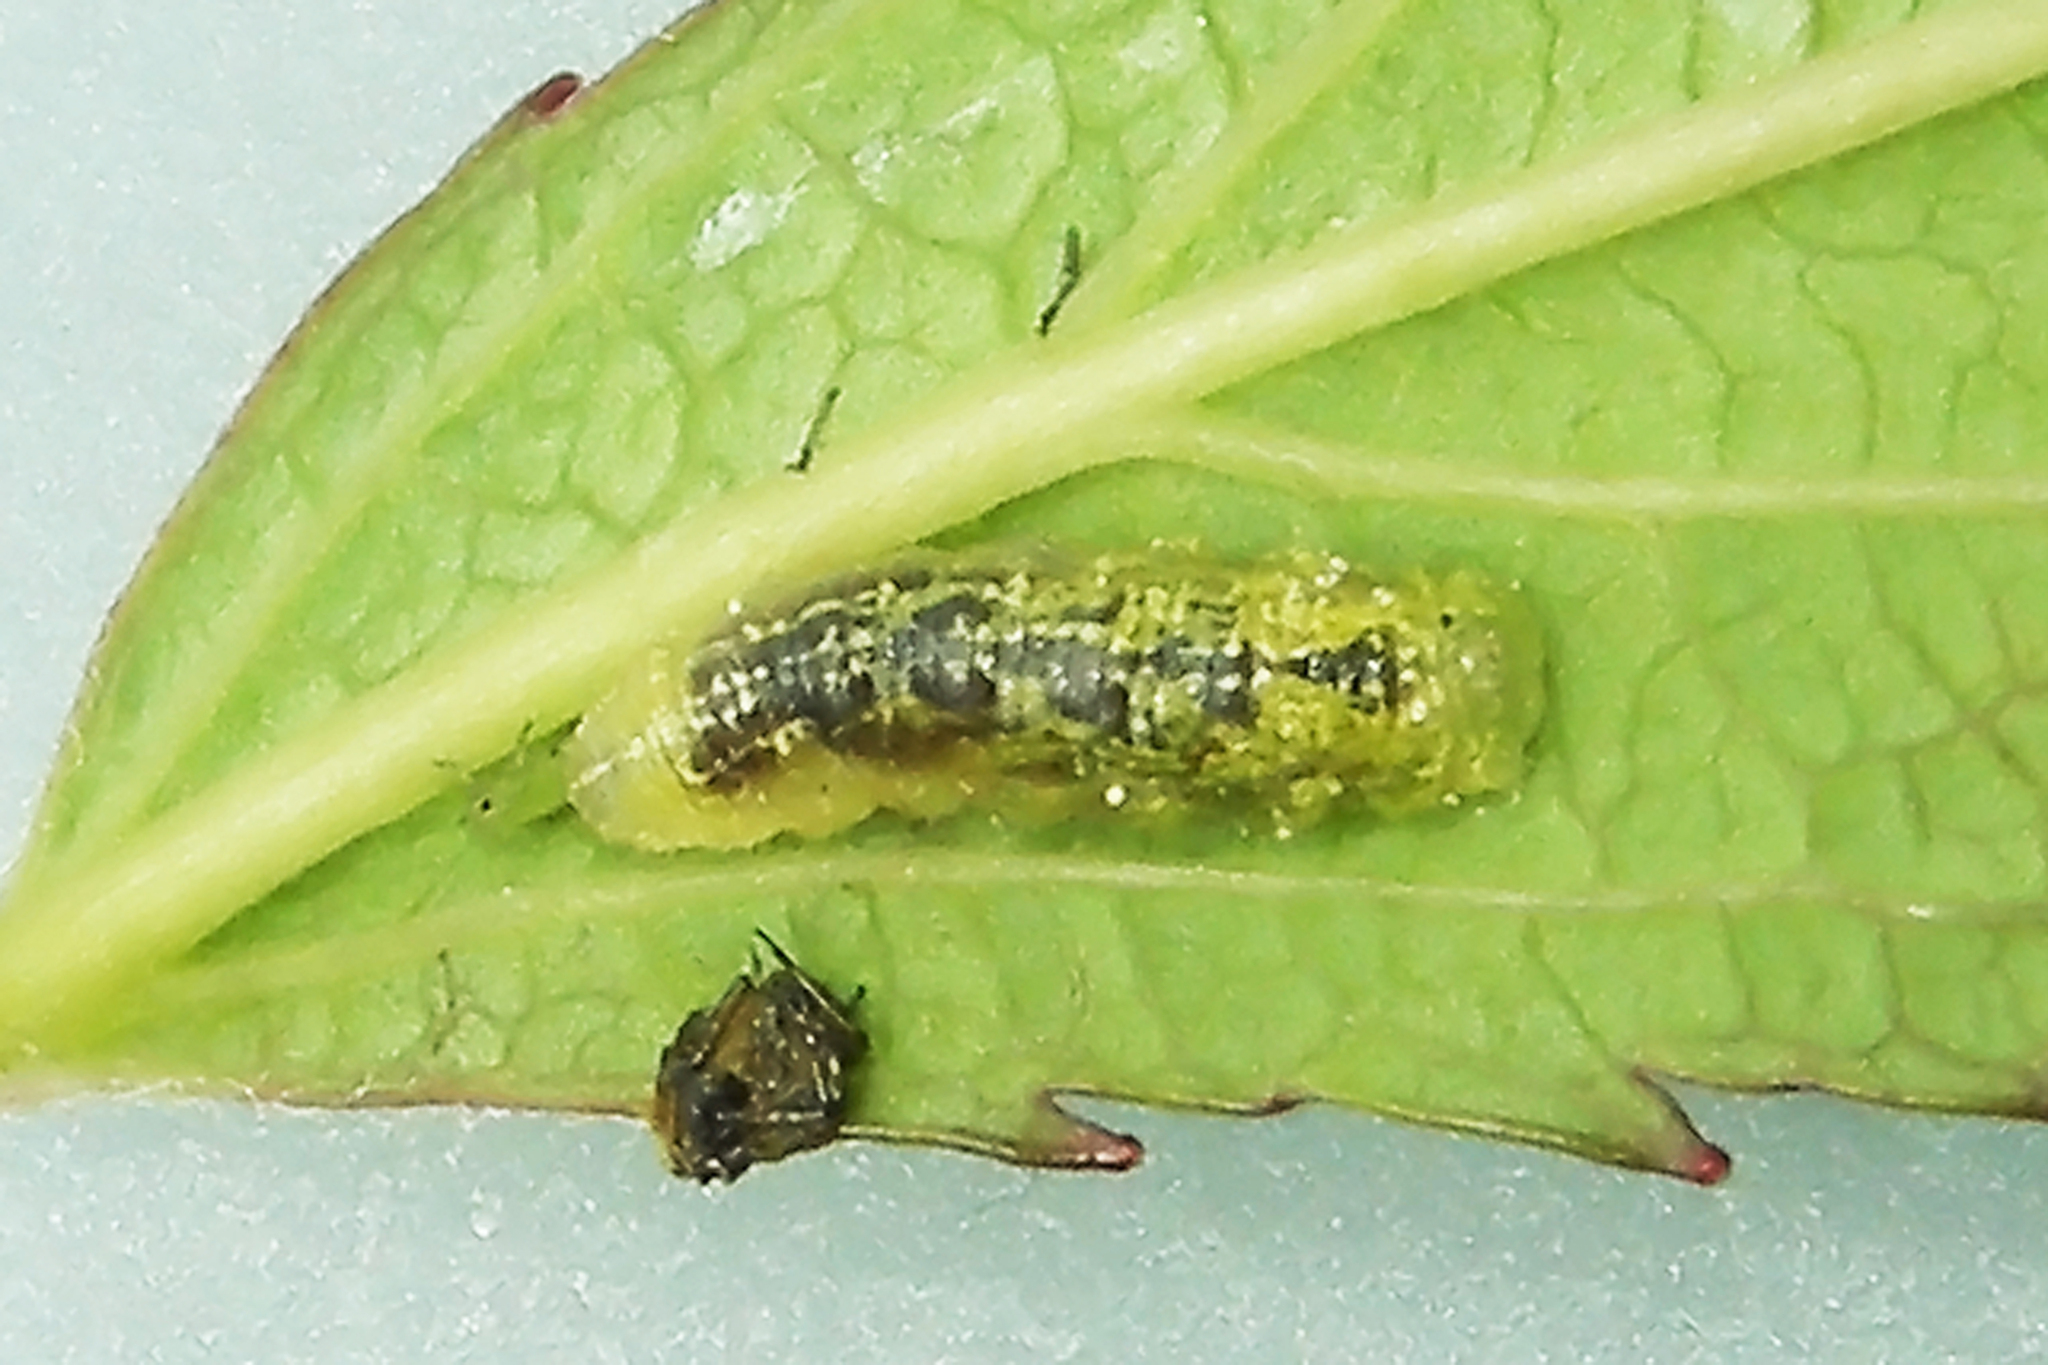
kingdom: Animalia
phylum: Arthropoda
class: Insecta
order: Diptera
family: Syrphidae
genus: Syrphus
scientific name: Syrphus
